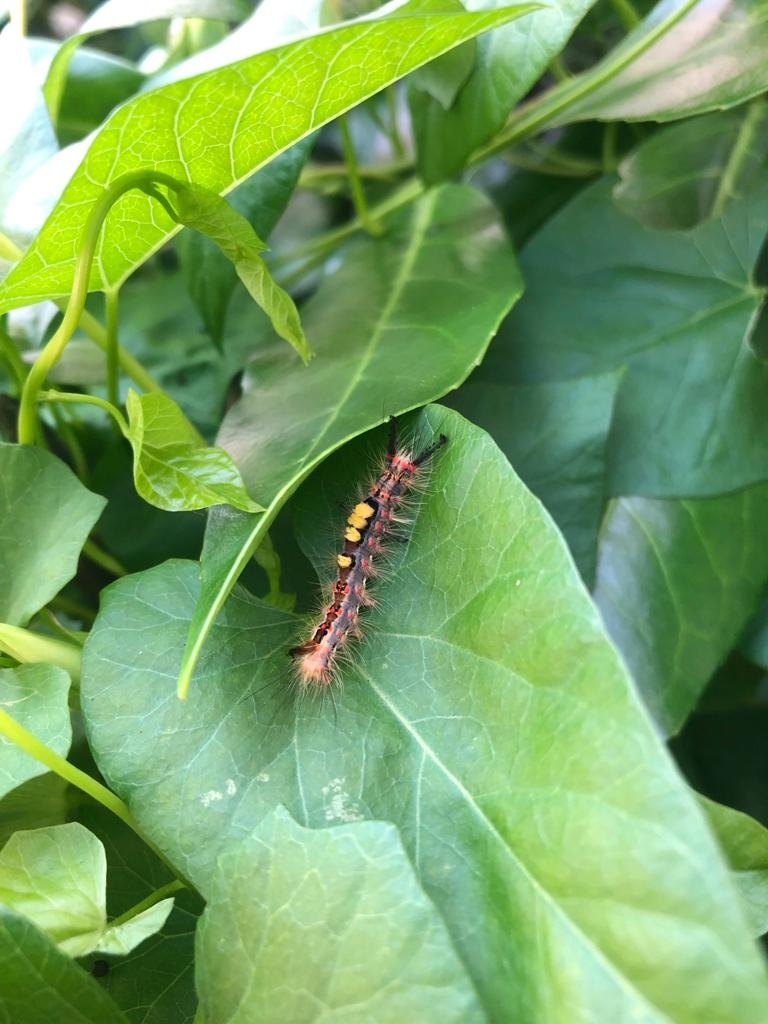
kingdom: Animalia
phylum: Arthropoda
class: Insecta
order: Lepidoptera
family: Erebidae
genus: Orgyia
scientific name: Orgyia antiqua
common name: Vapourer
